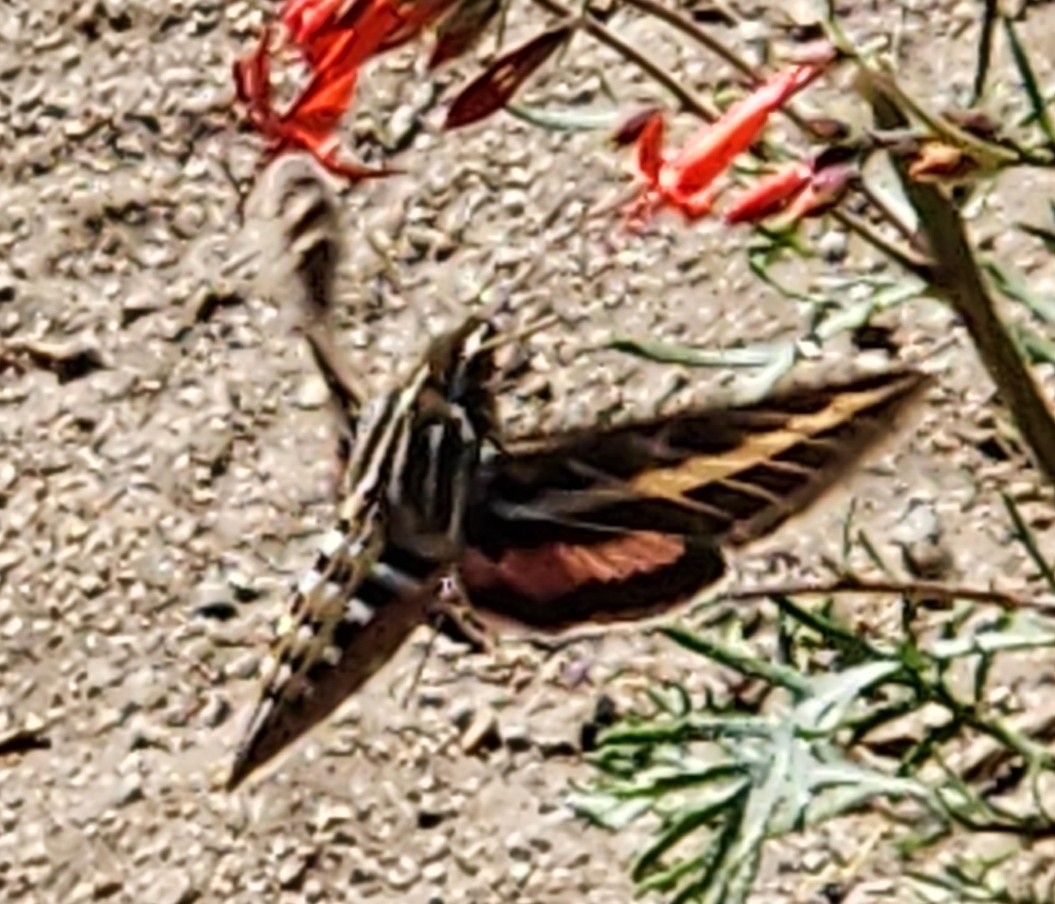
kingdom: Animalia
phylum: Arthropoda
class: Insecta
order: Lepidoptera
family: Sphingidae
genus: Hyles
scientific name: Hyles lineata
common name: White-lined sphinx
